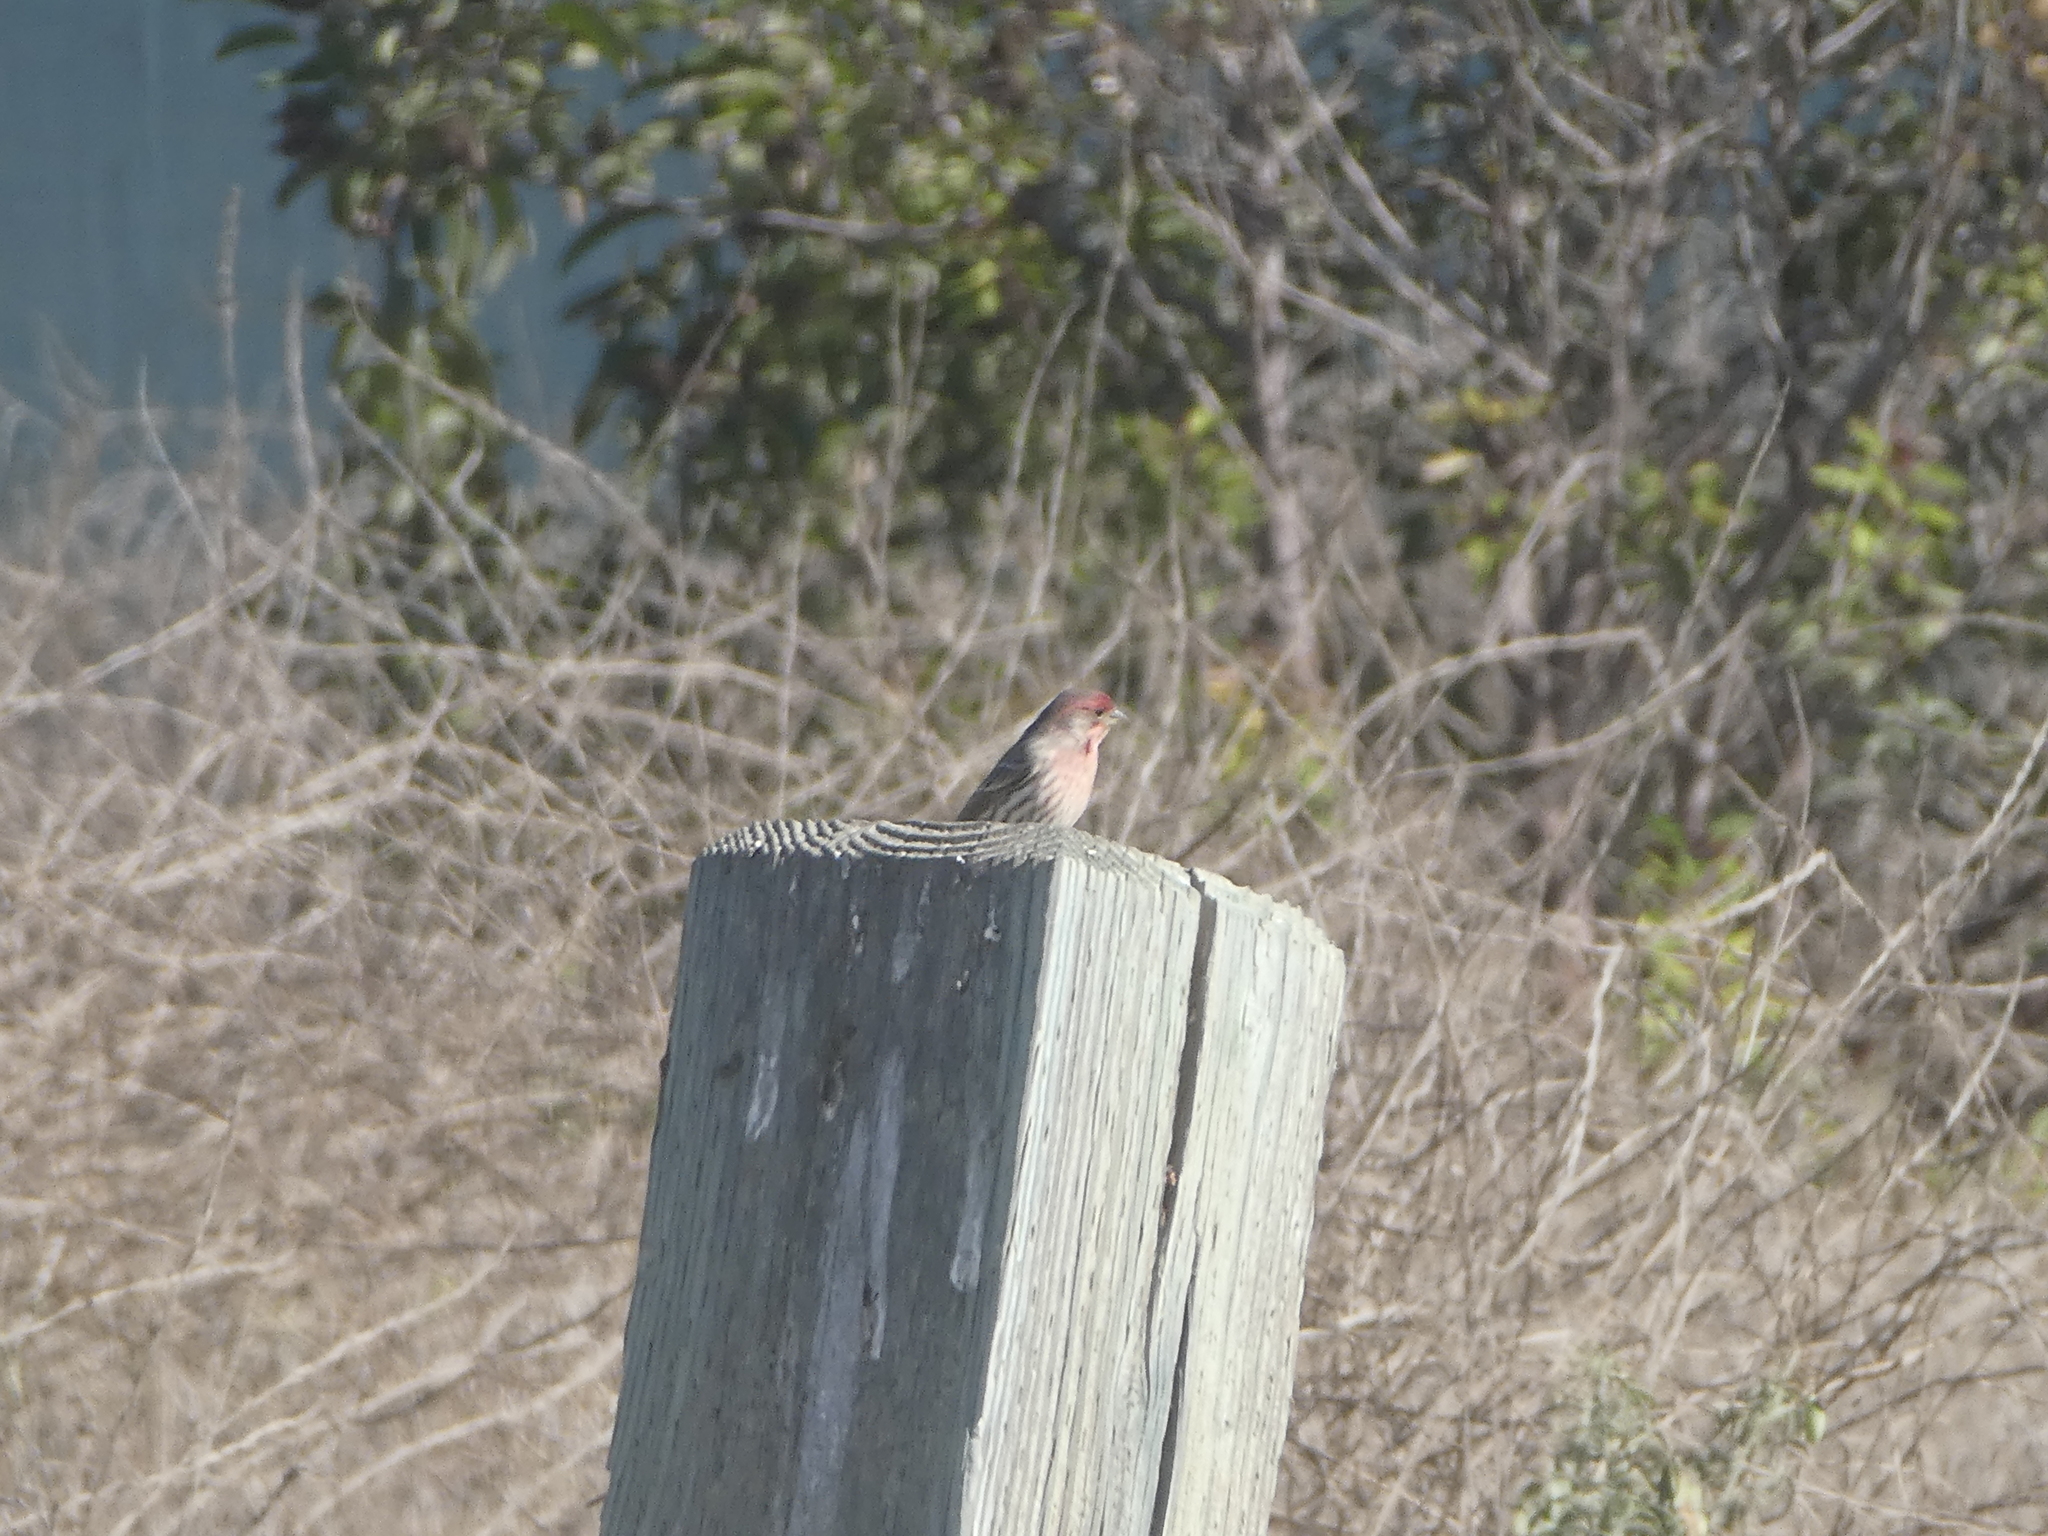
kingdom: Animalia
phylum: Chordata
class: Aves
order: Passeriformes
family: Fringillidae
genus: Haemorhous
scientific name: Haemorhous mexicanus
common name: House finch
